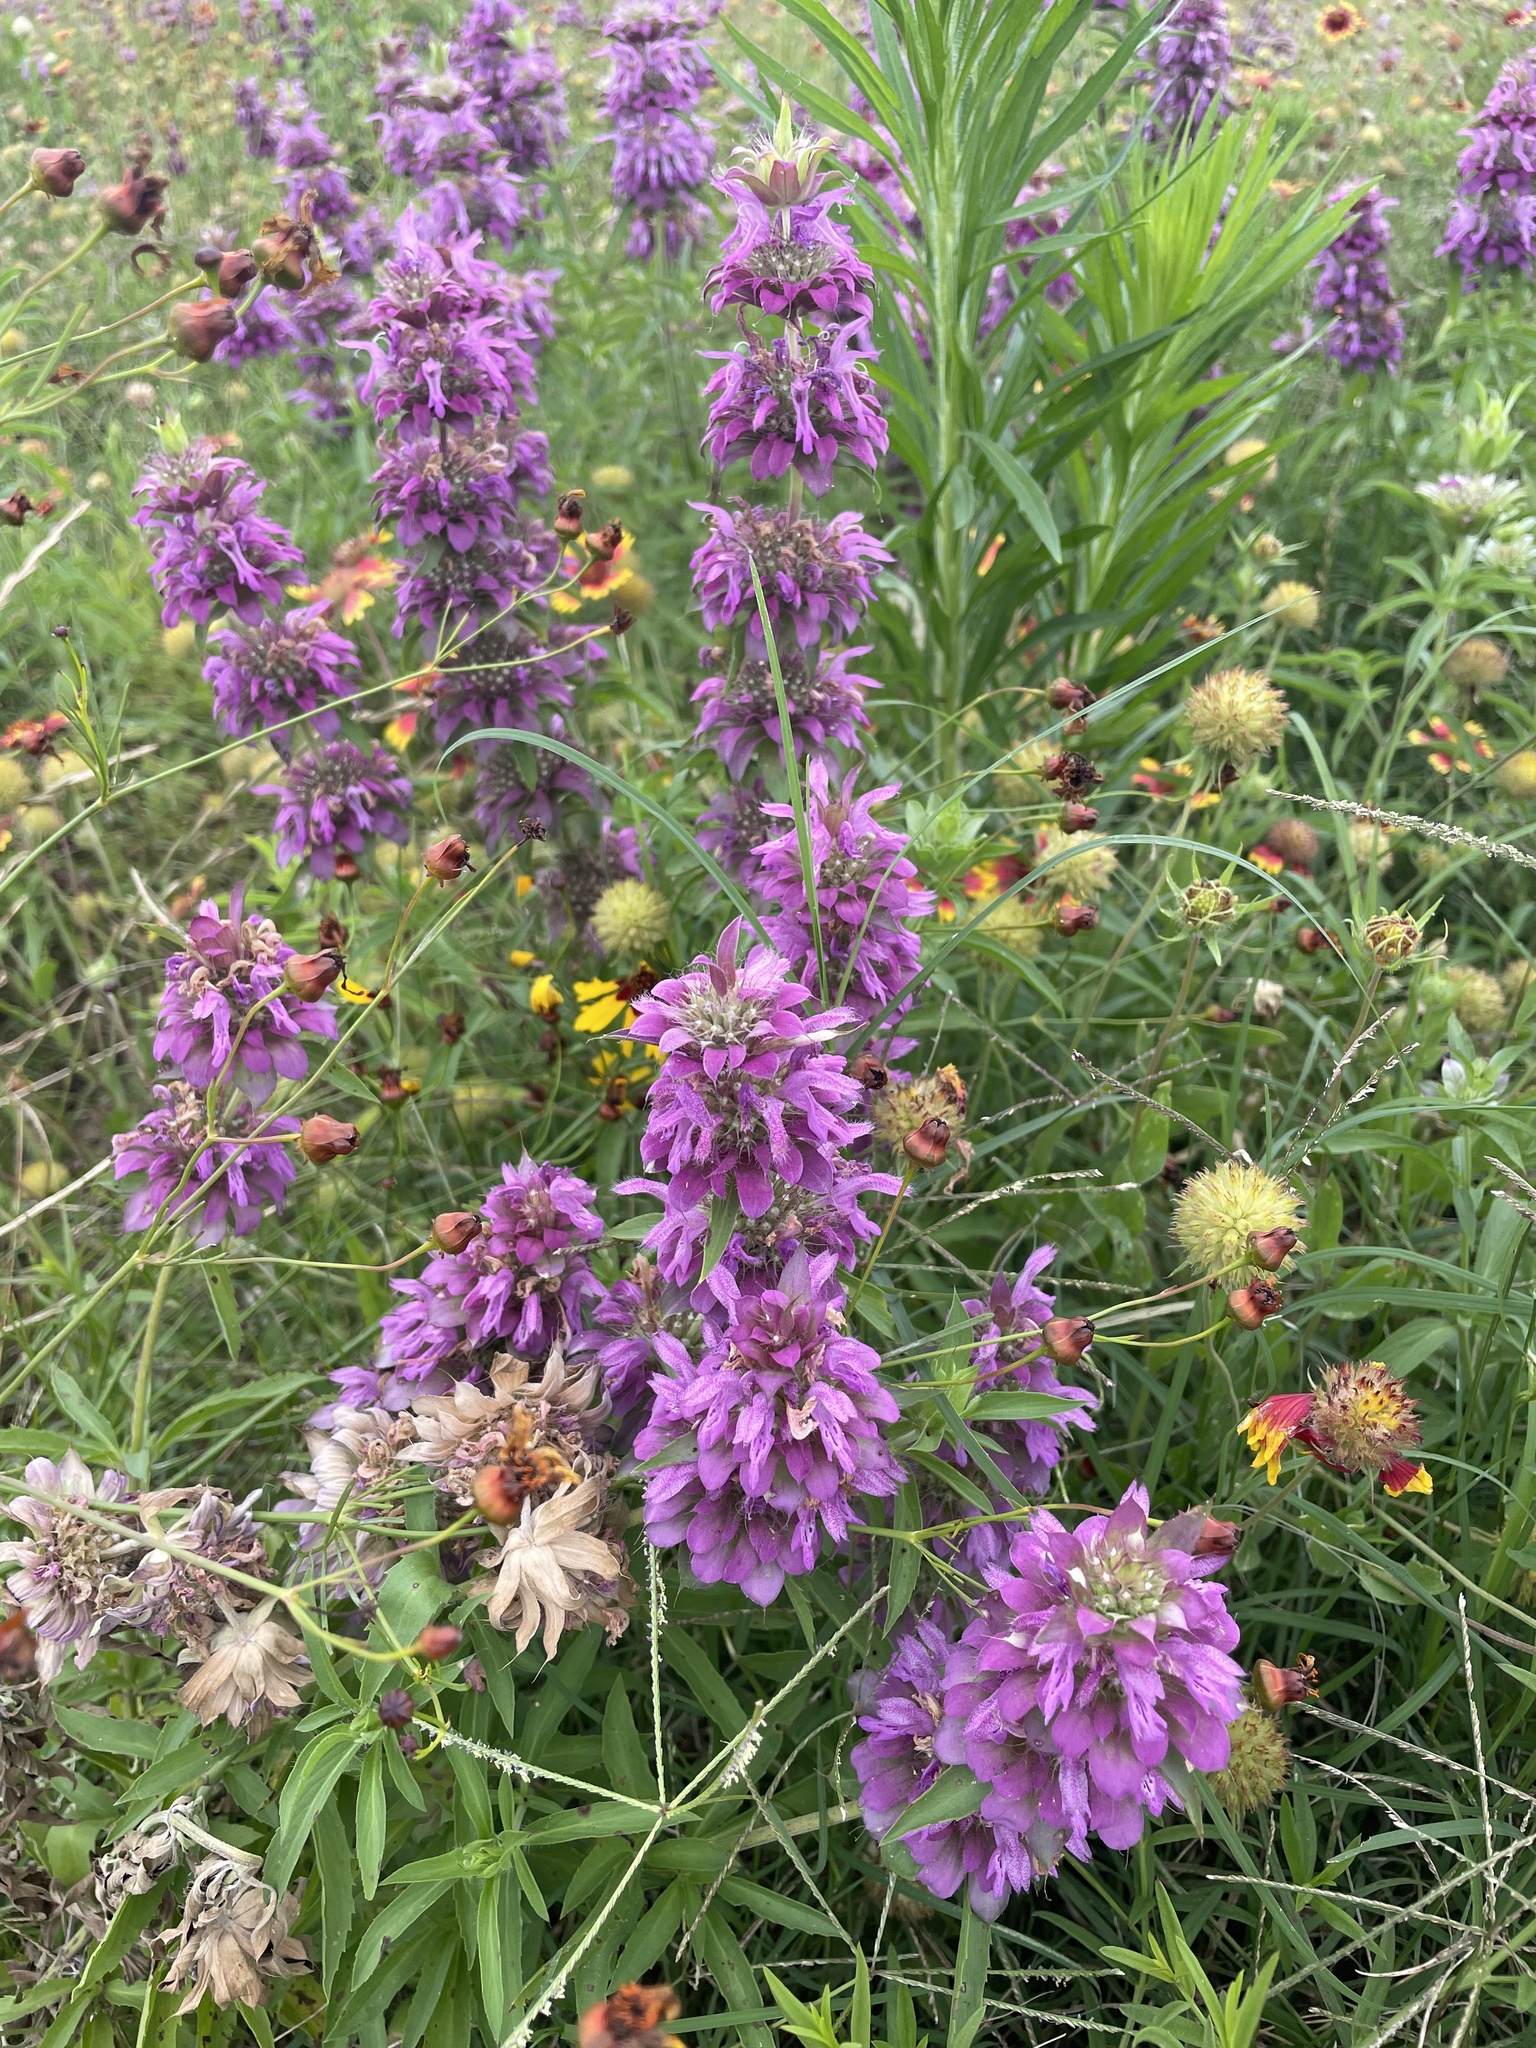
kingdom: Plantae
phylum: Tracheophyta
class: Magnoliopsida
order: Lamiales
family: Lamiaceae
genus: Monarda
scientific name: Monarda citriodora
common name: Lemon beebalm
